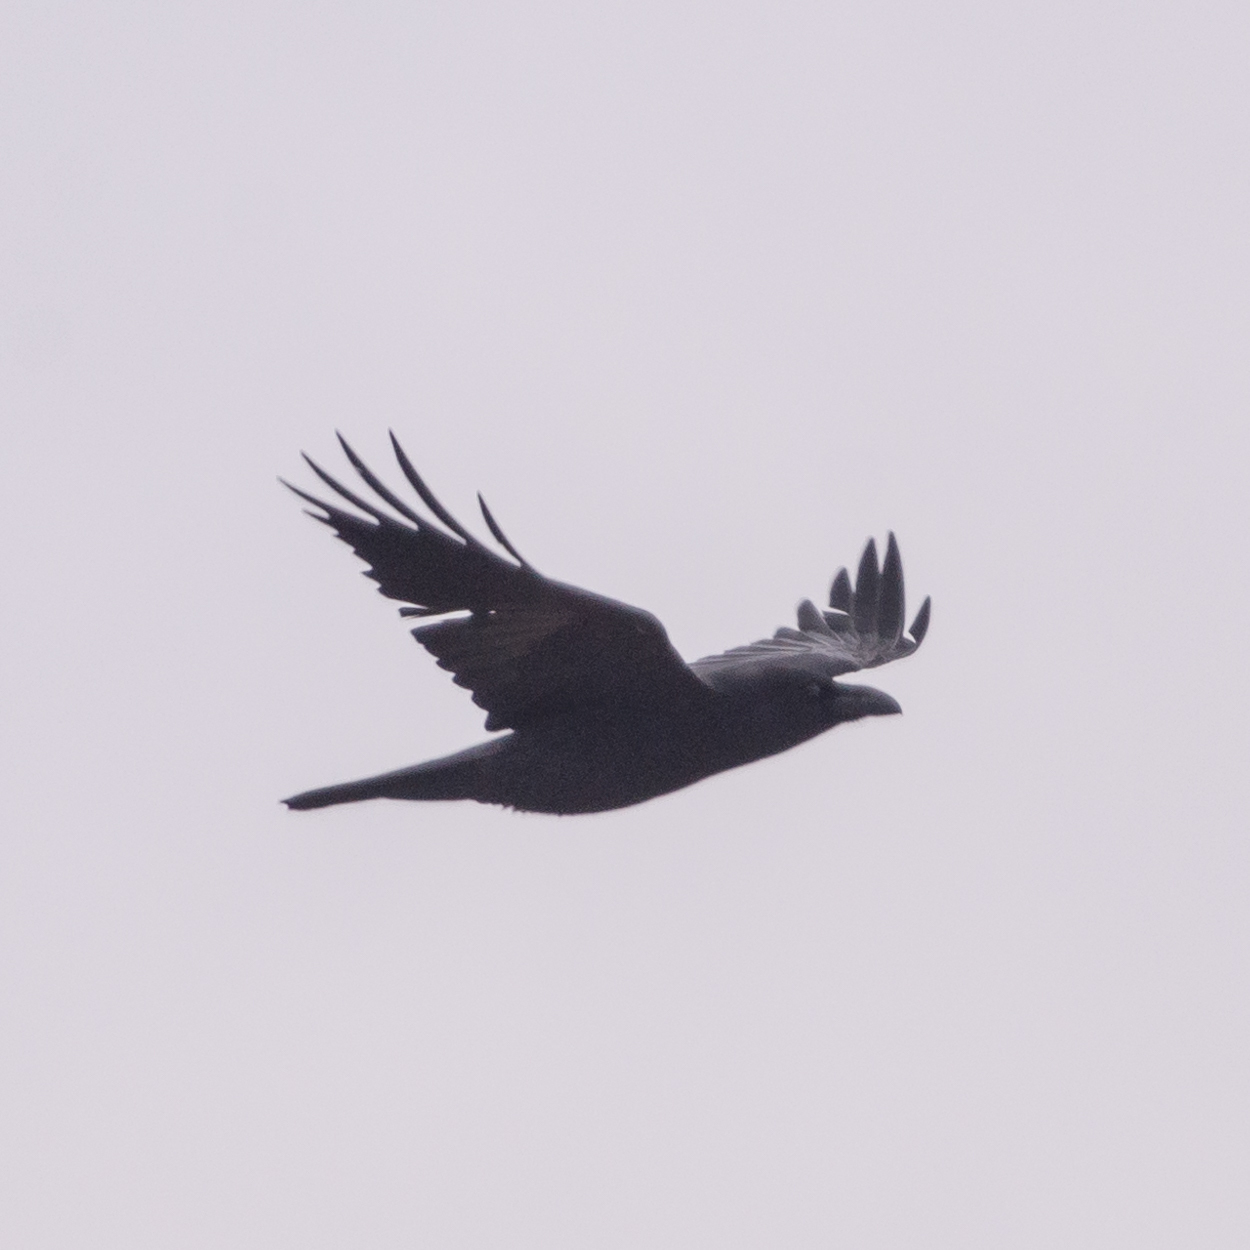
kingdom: Animalia
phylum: Chordata
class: Aves
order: Passeriformes
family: Corvidae
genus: Corvus
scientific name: Corvus corax
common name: Common raven
